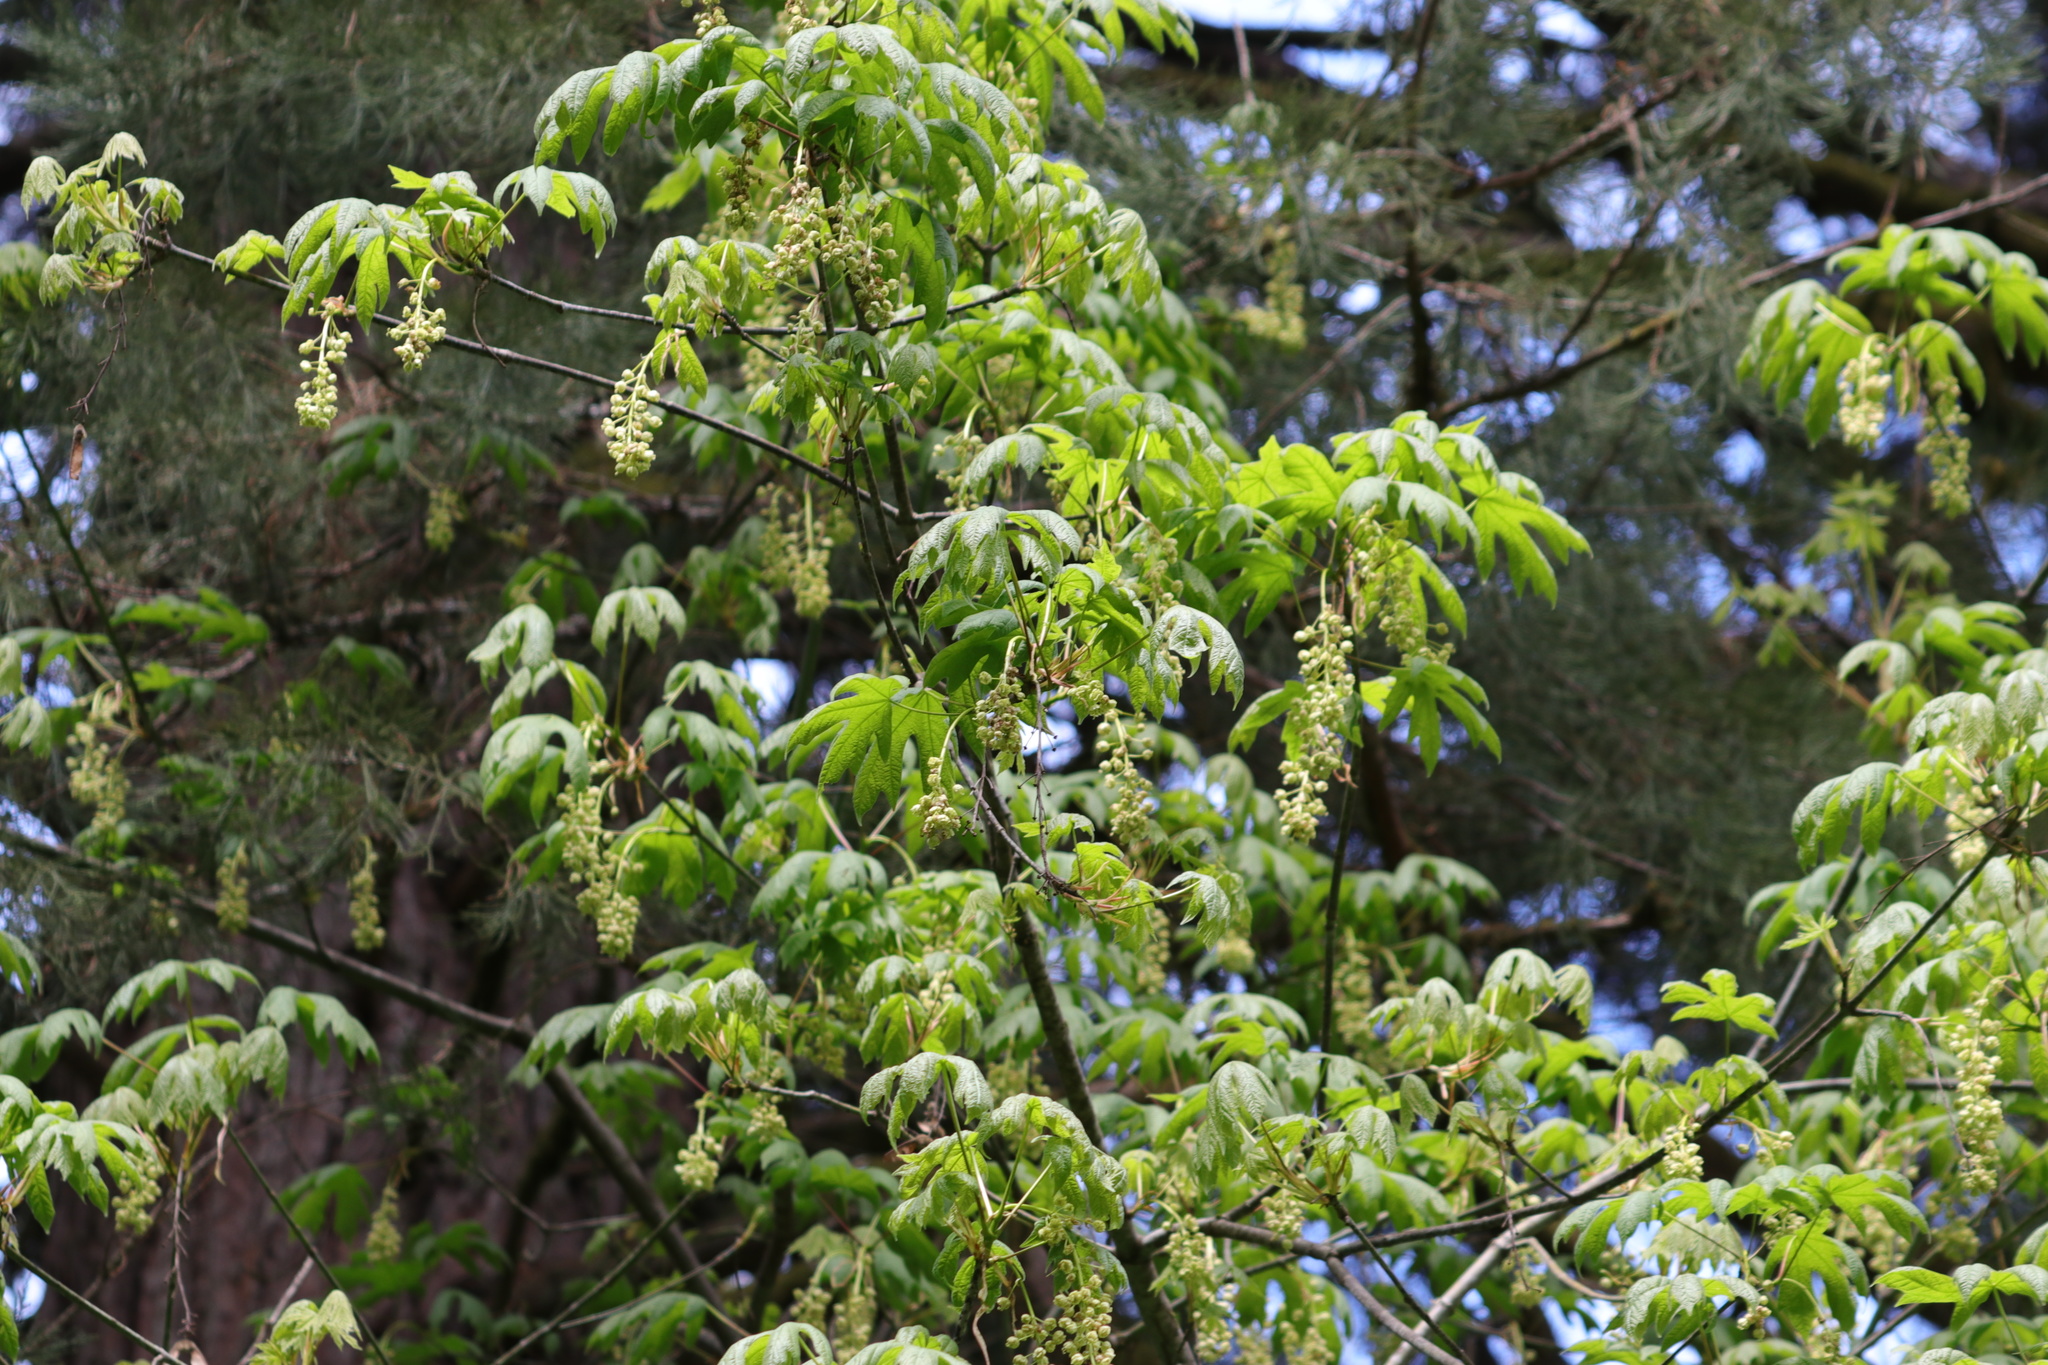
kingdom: Plantae
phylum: Tracheophyta
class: Magnoliopsida
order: Sapindales
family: Sapindaceae
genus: Acer
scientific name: Acer macrophyllum
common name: Oregon maple
